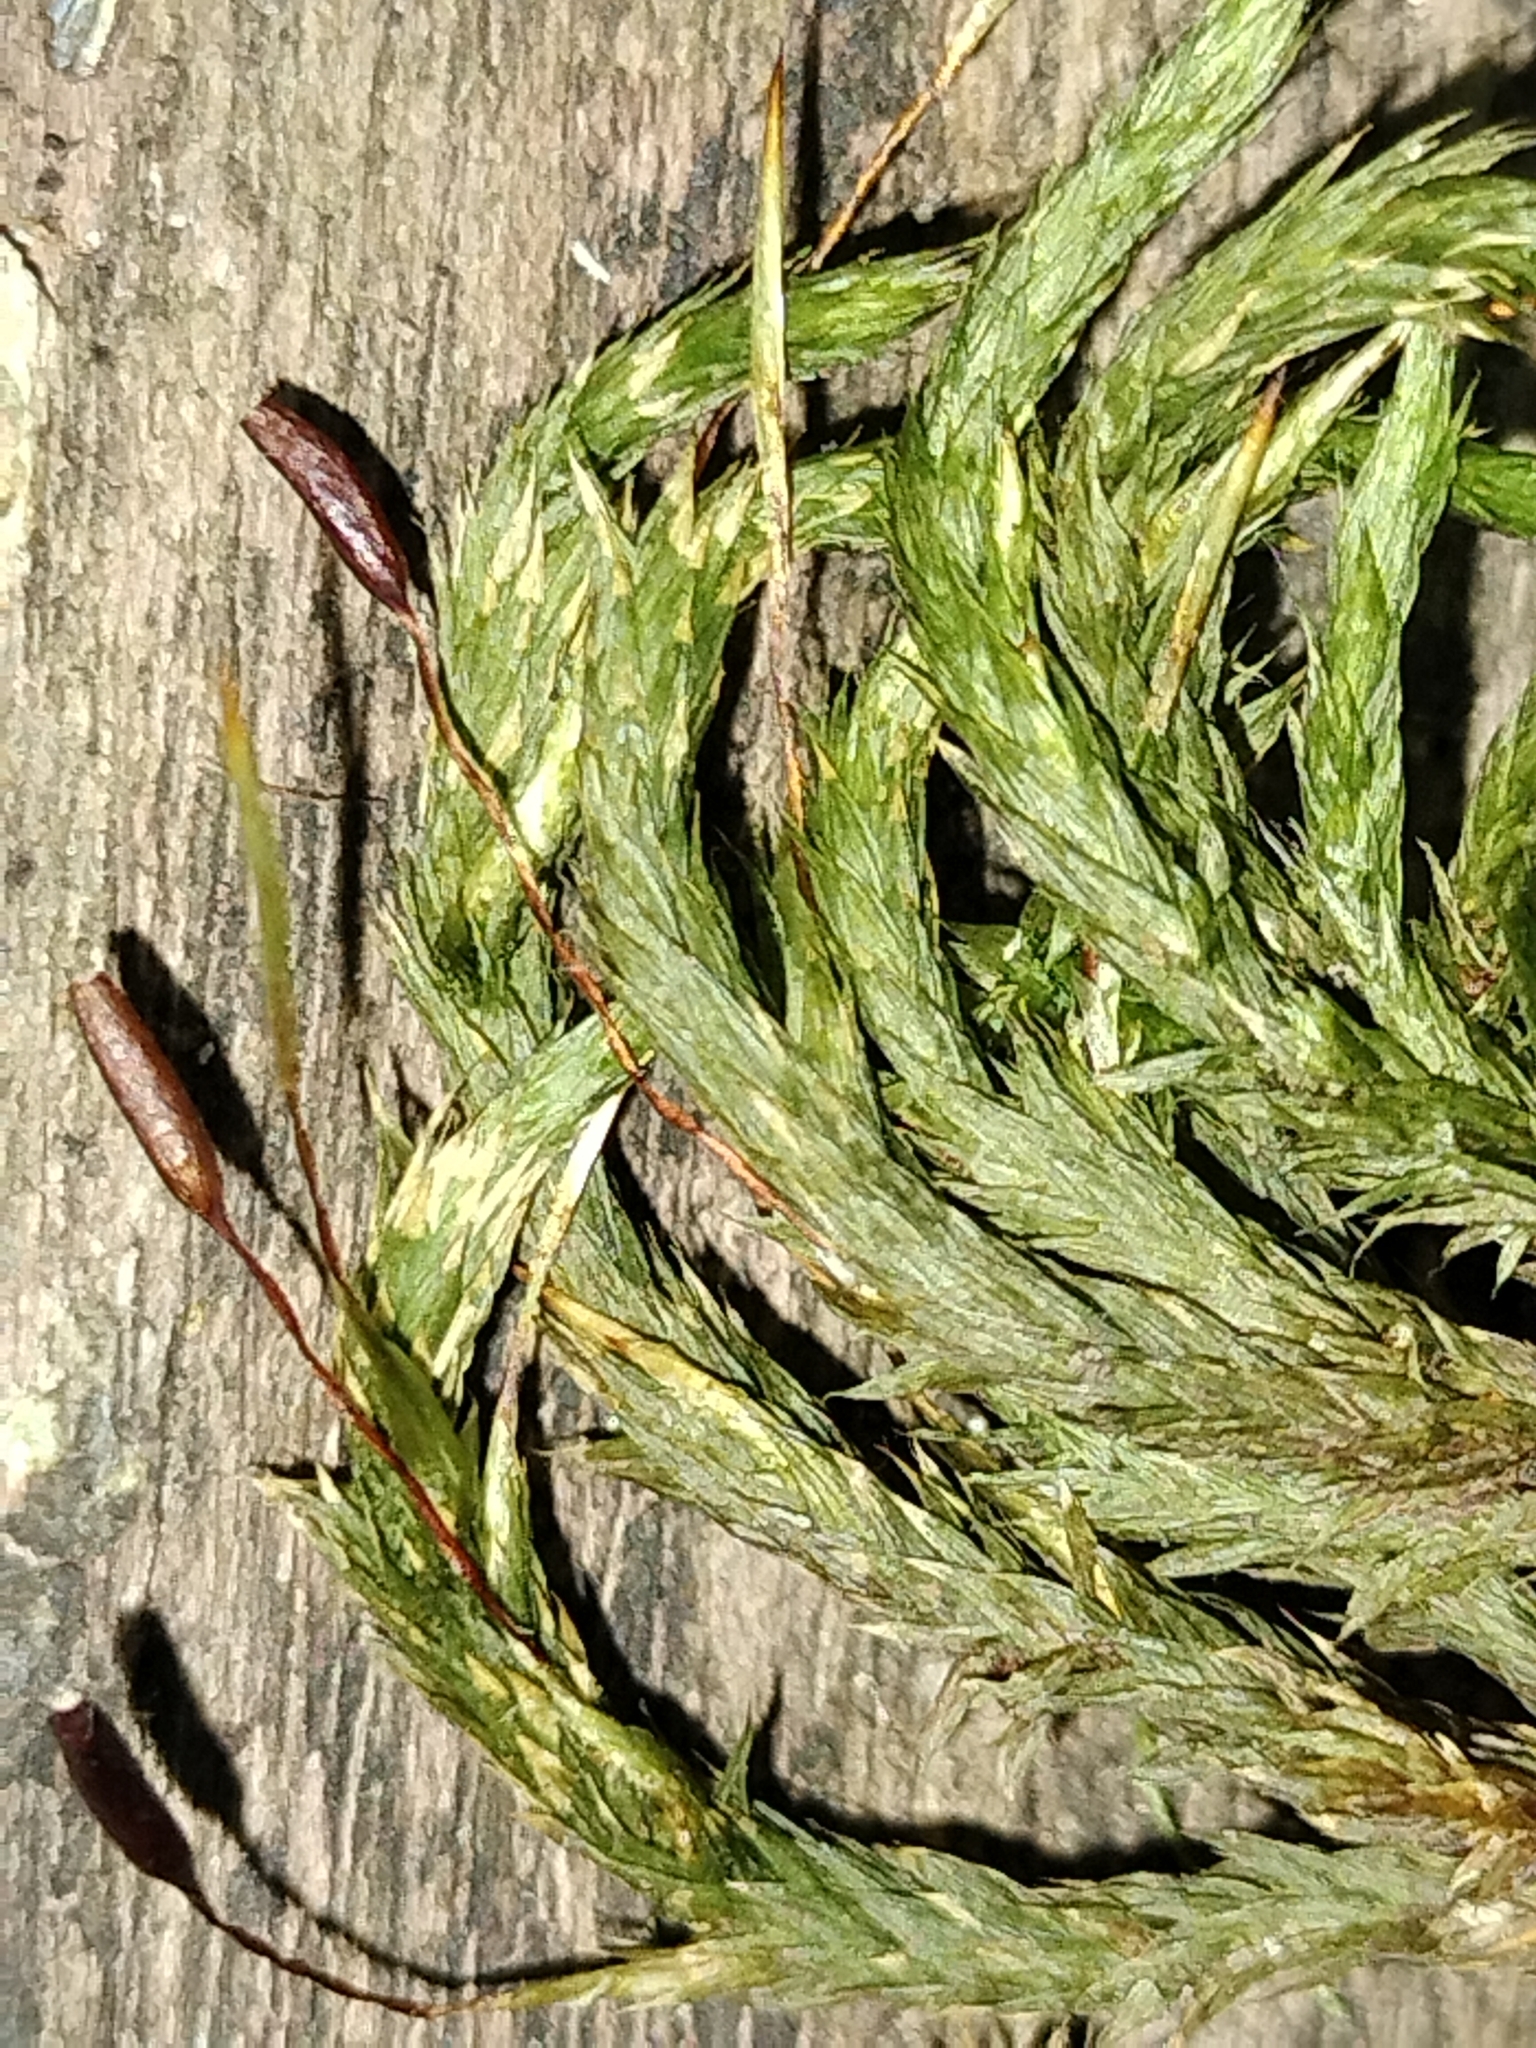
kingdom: Plantae
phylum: Bryophyta
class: Bryopsida
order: Hypnales
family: Leucodontaceae
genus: Leucodon
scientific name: Leucodon sciuroides
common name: Squirrel-tail moss
